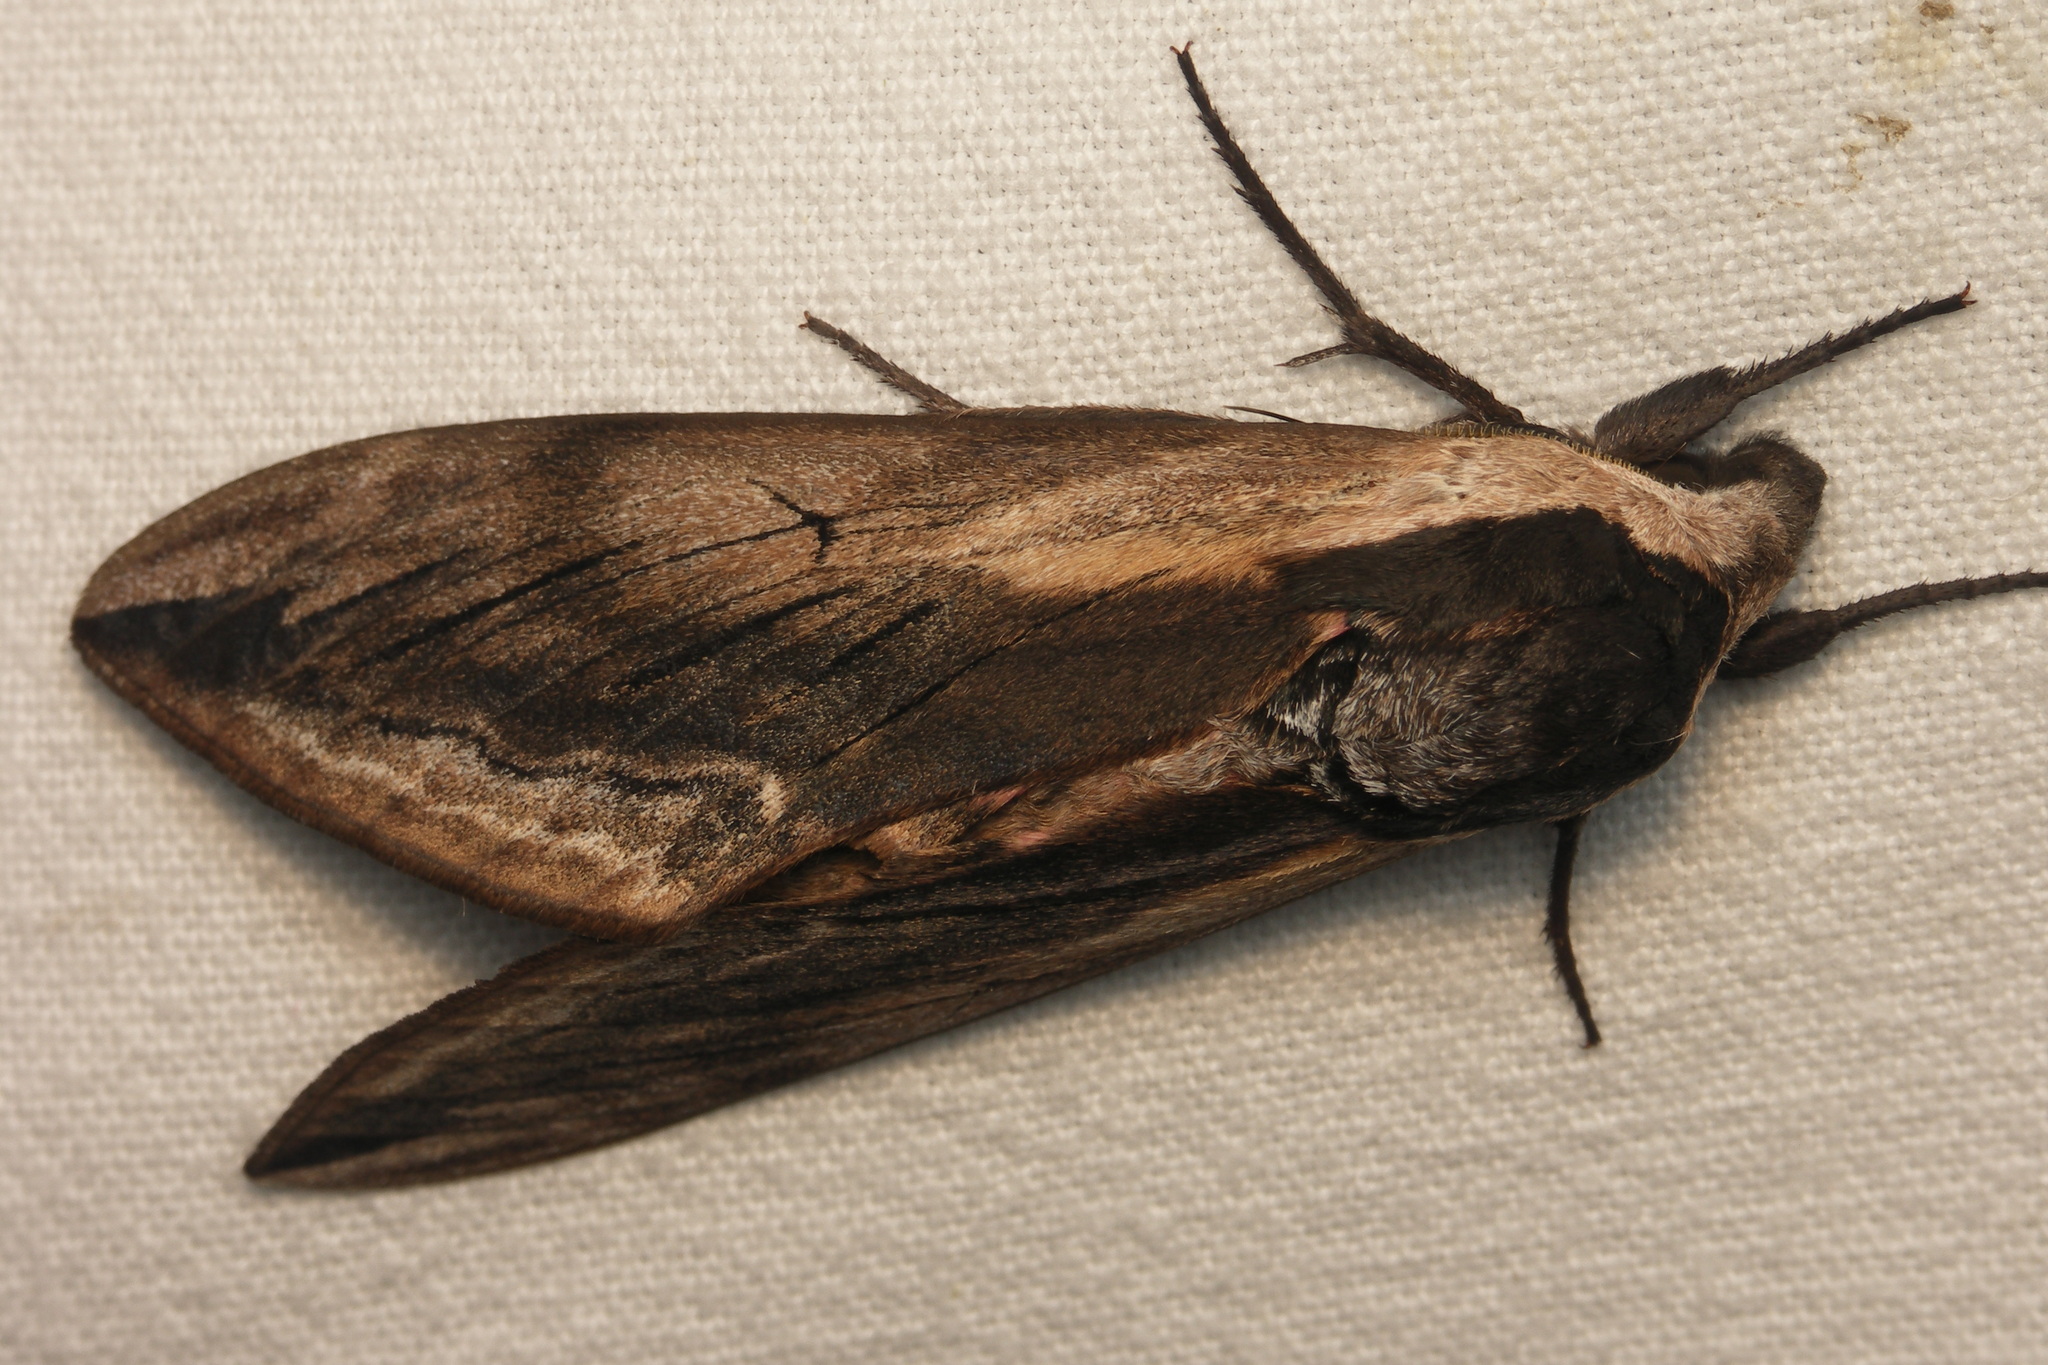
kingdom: Animalia
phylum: Arthropoda
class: Insecta
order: Lepidoptera
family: Sphingidae
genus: Sphinx
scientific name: Sphinx ligustri
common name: Privet hawk-moth
